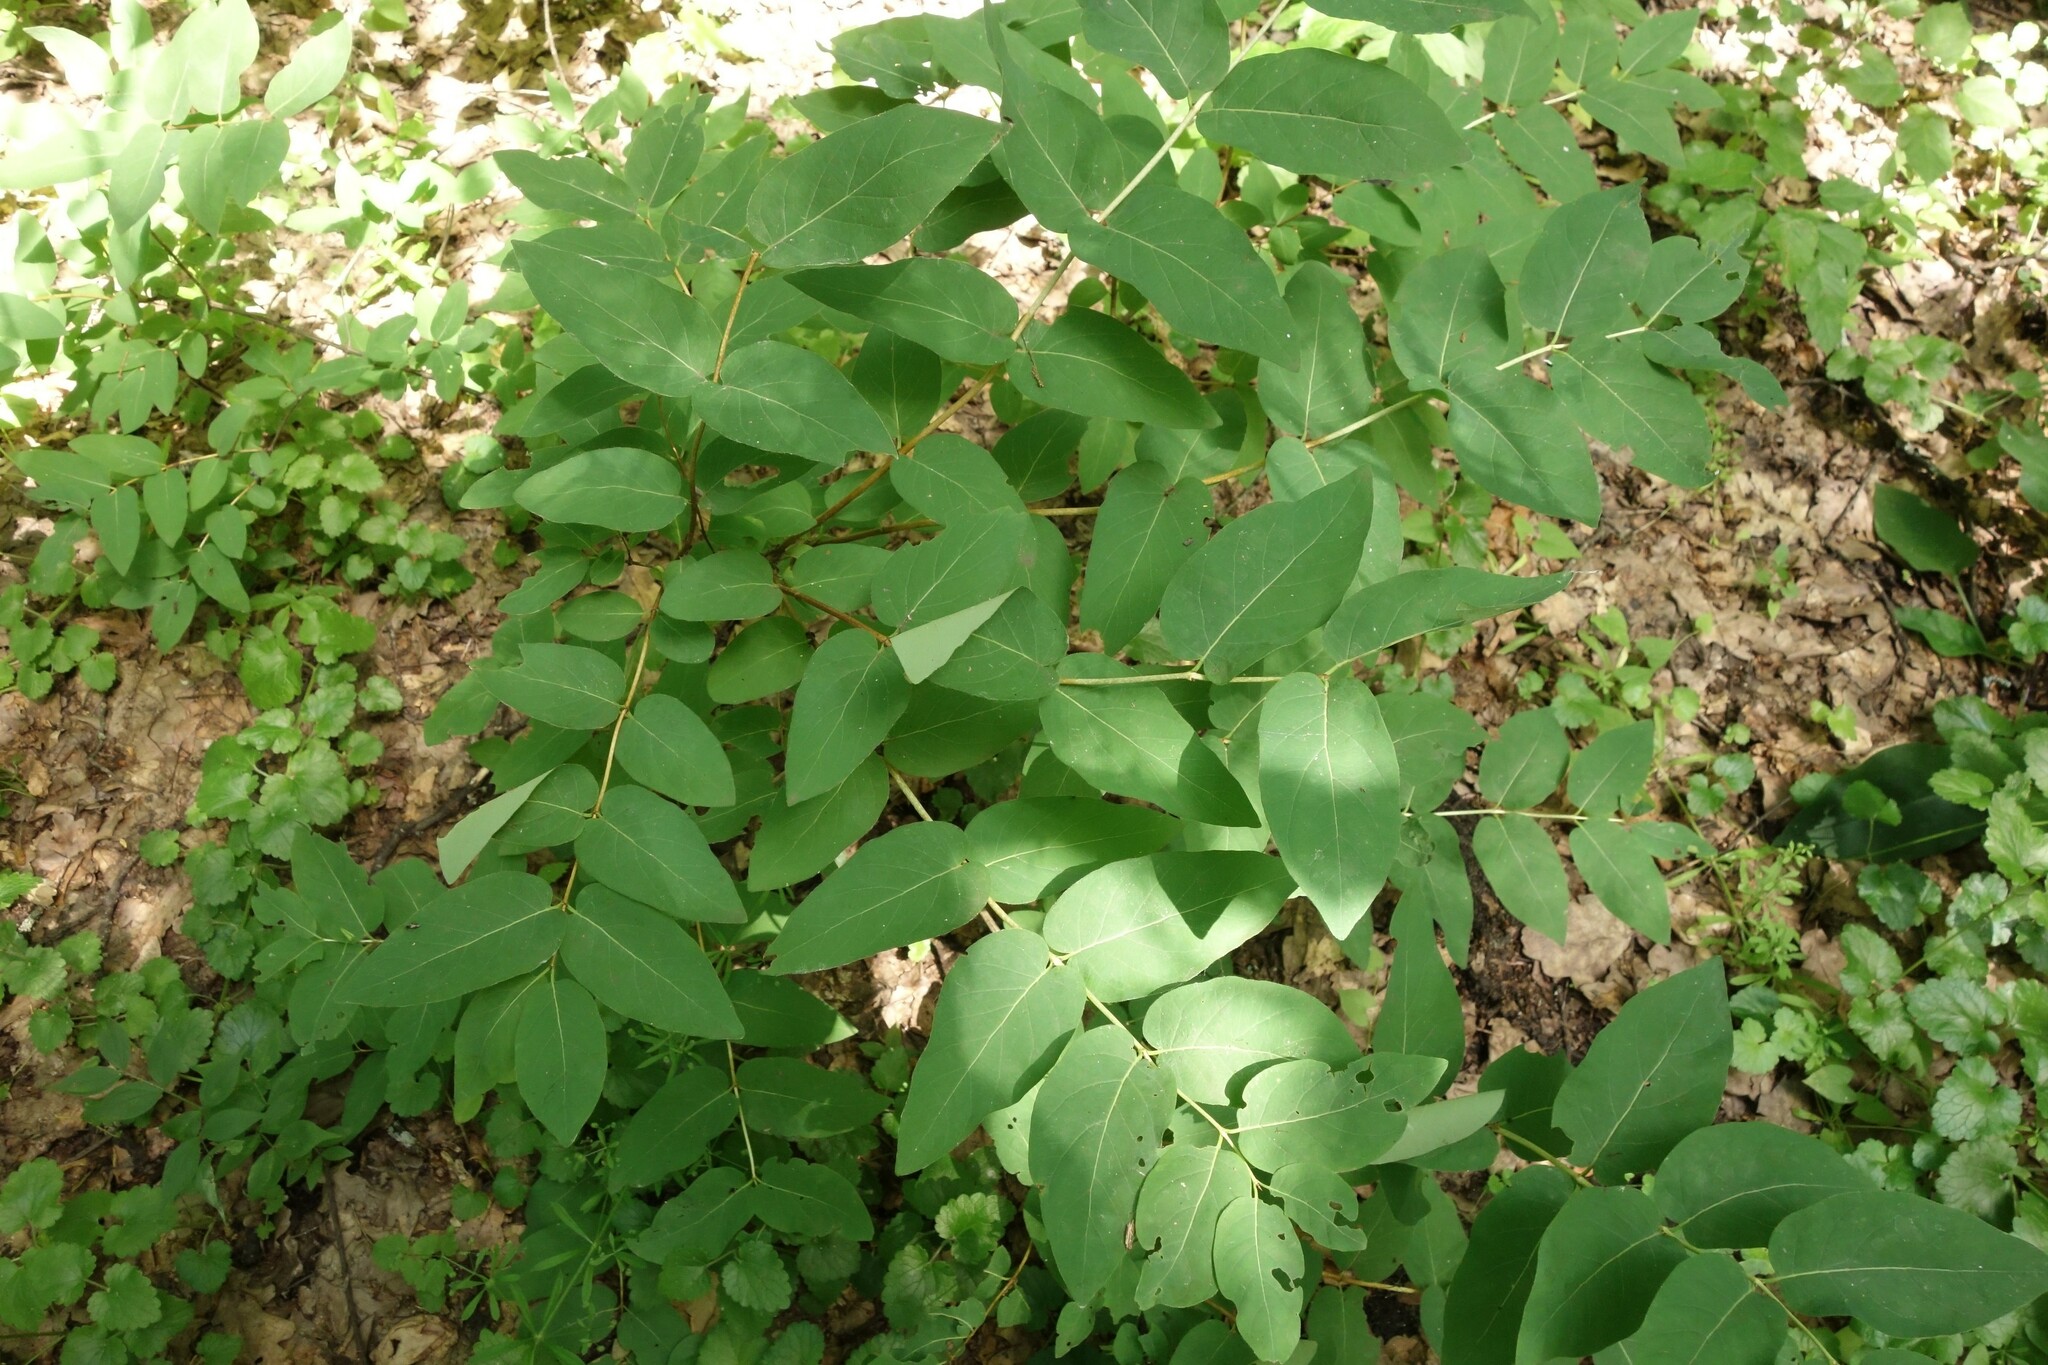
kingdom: Plantae
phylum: Tracheophyta
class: Magnoliopsida
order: Dipsacales
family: Caprifoliaceae
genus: Lonicera
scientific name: Lonicera tatarica
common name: Tatarian honeysuckle
